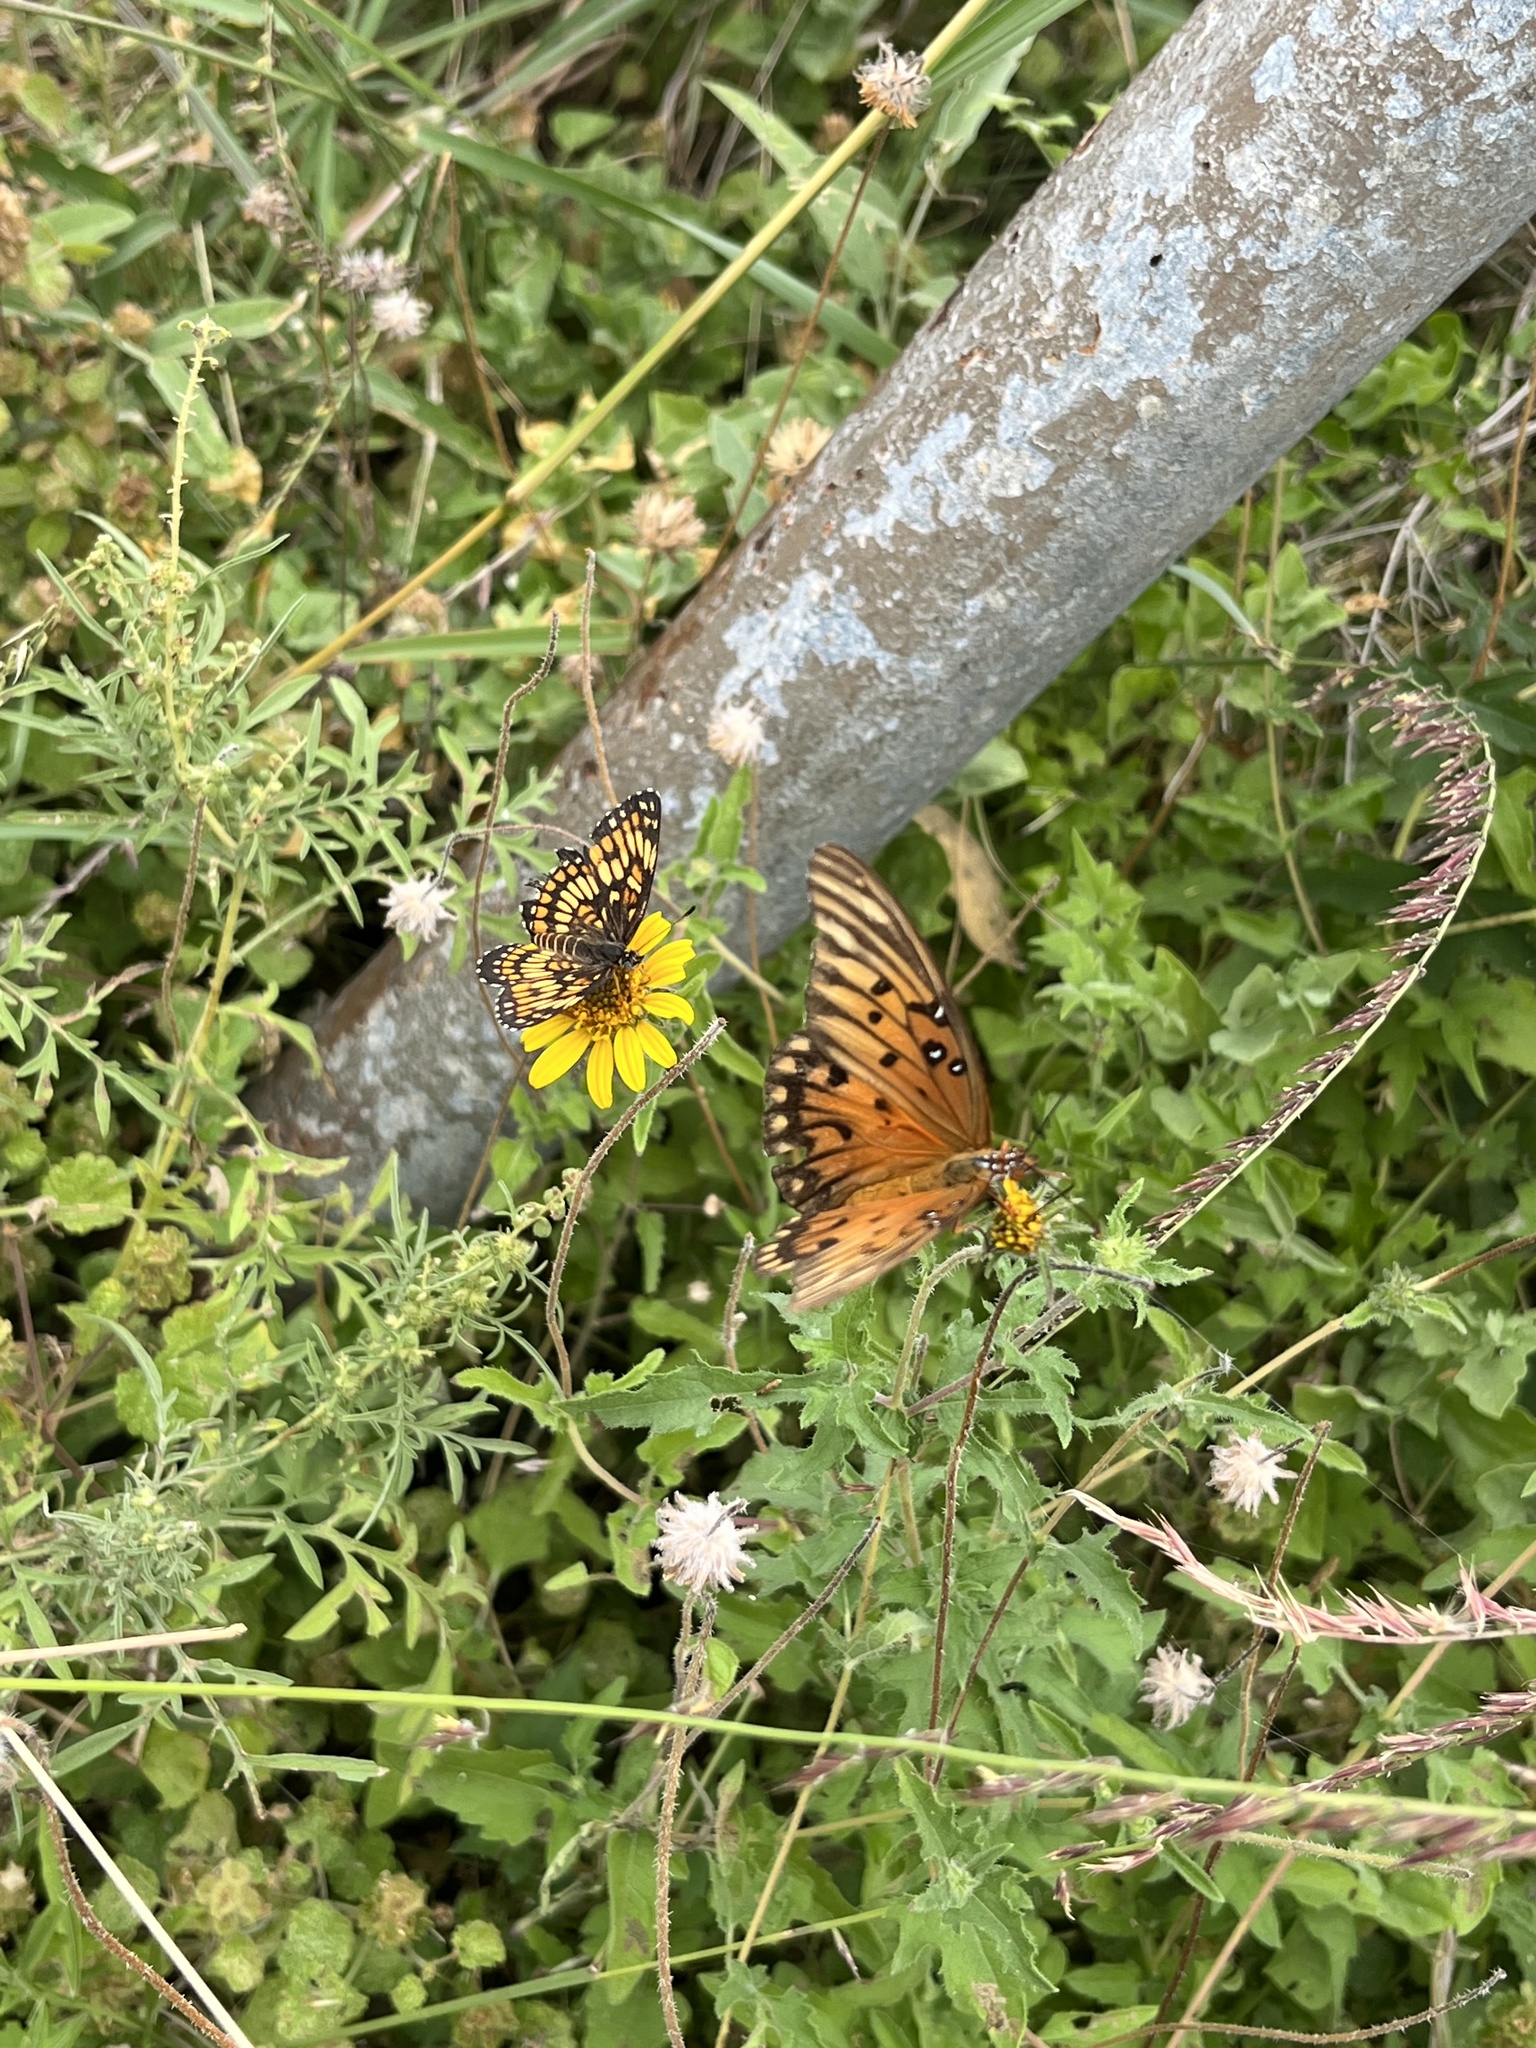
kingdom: Animalia
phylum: Arthropoda
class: Insecta
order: Lepidoptera
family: Nymphalidae
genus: Thessalia
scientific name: Thessalia theona
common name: Nymphalid moth
